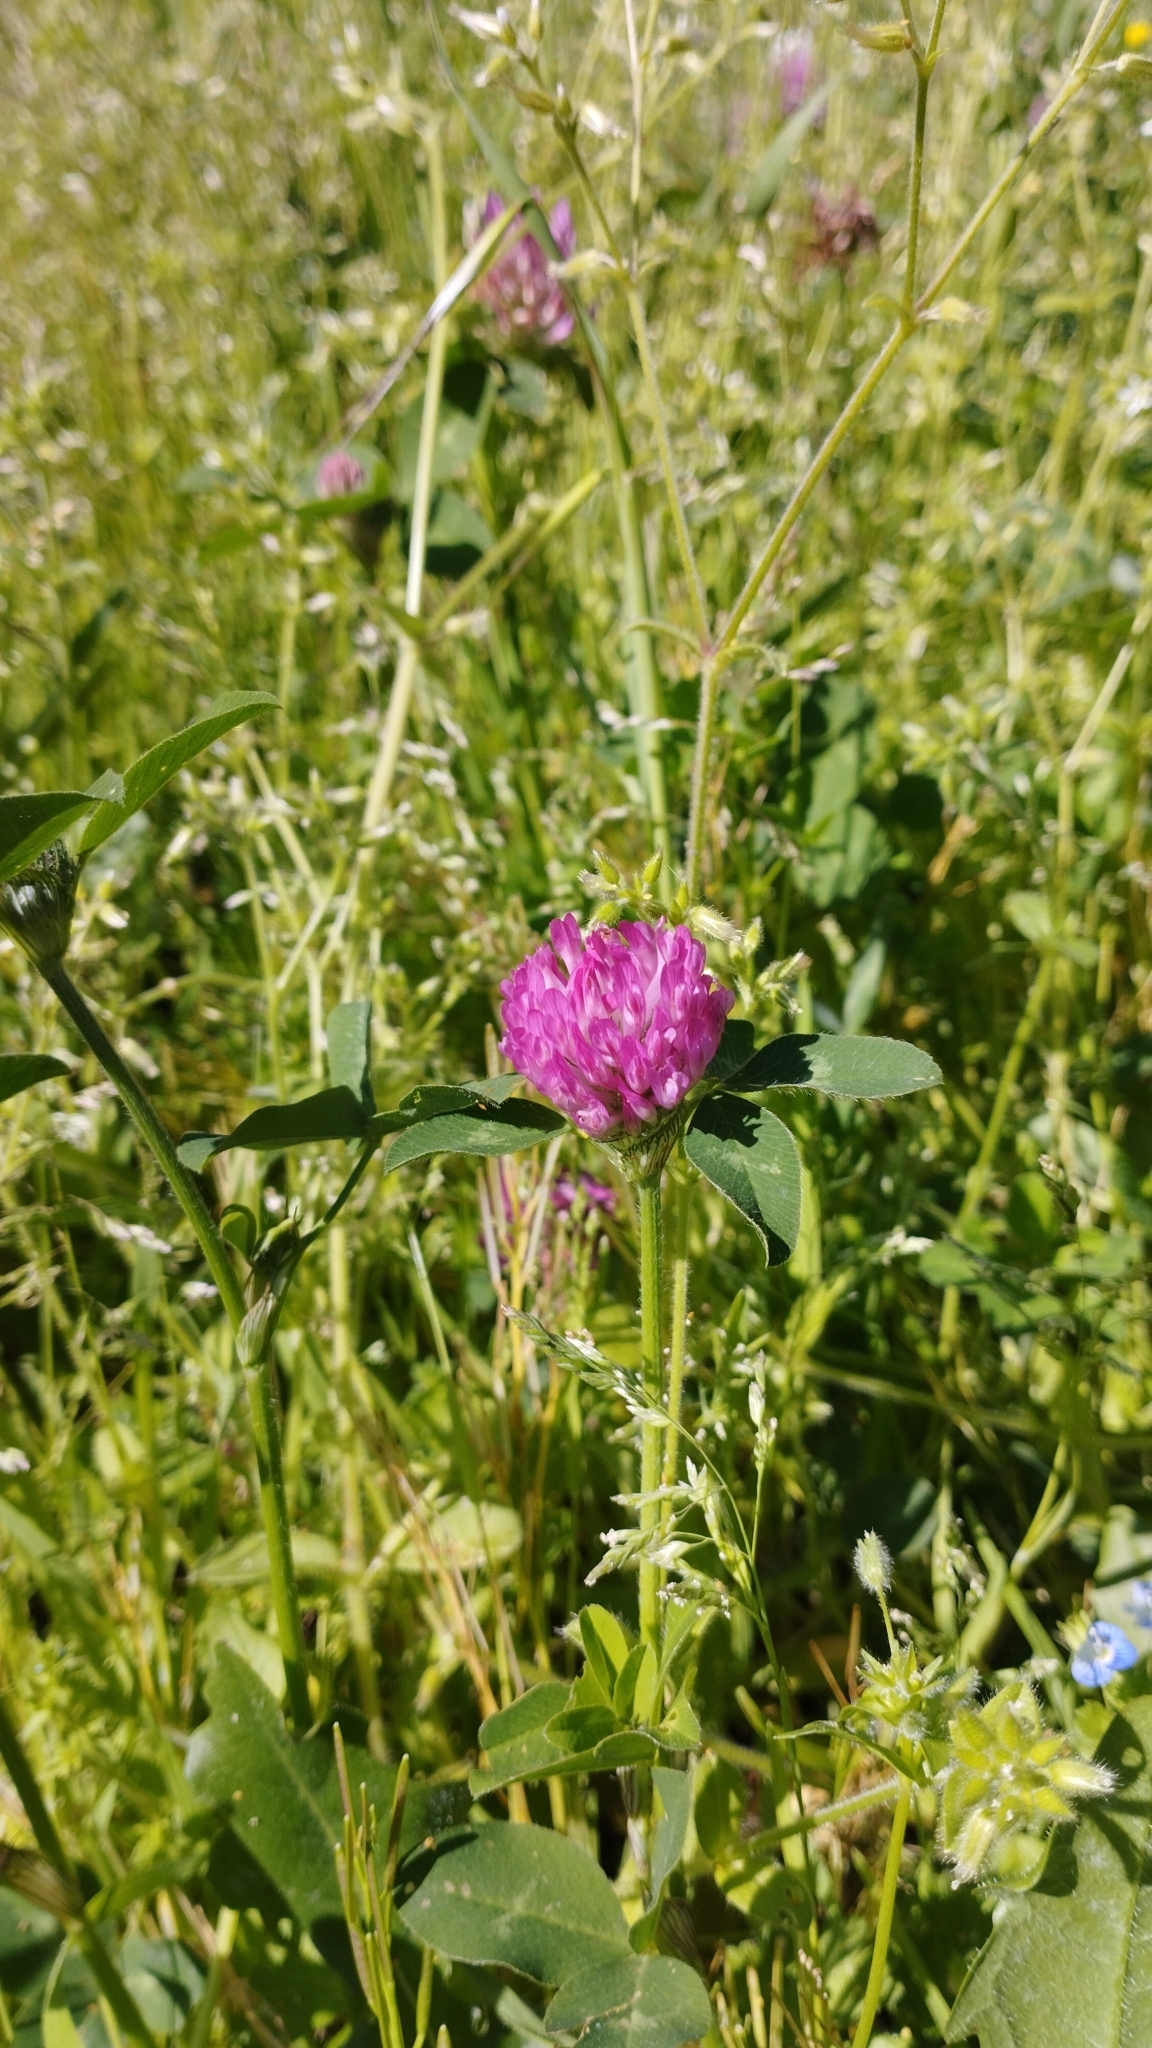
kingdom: Plantae
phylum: Tracheophyta
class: Magnoliopsida
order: Fabales
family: Fabaceae
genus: Trifolium
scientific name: Trifolium pratense
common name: Red clover
